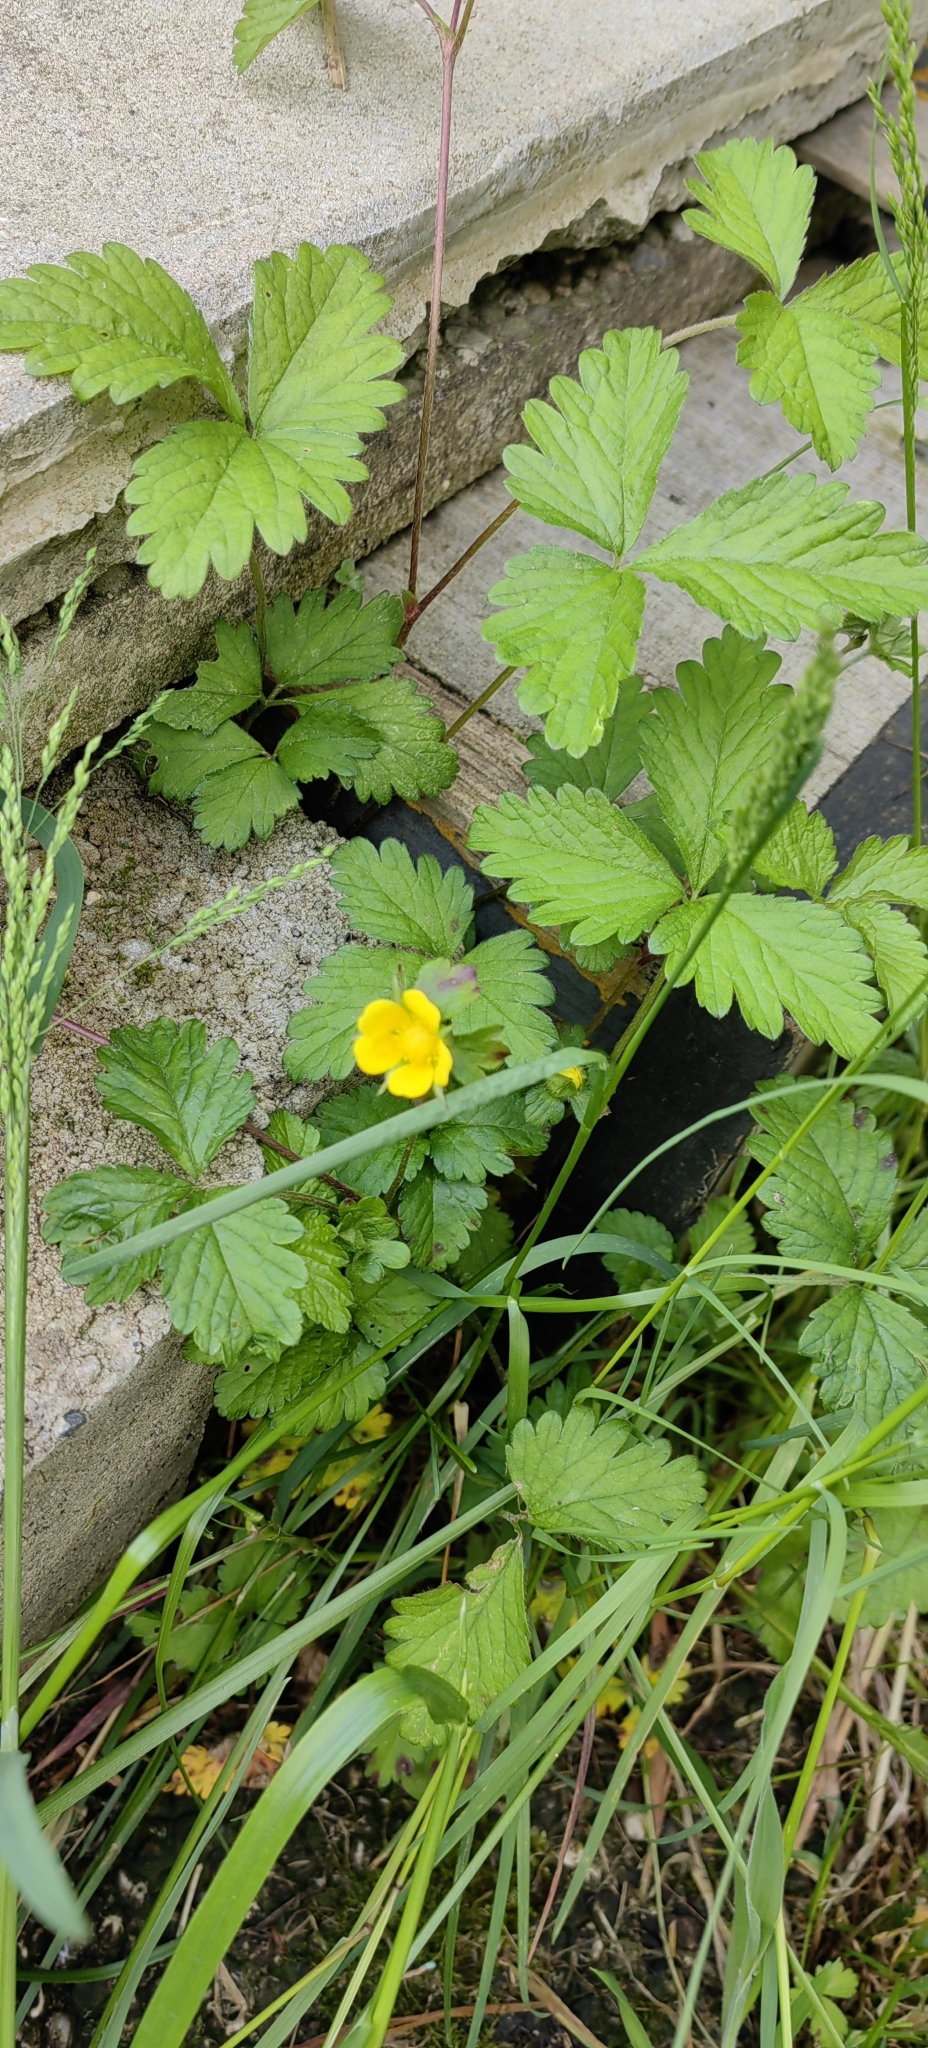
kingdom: Plantae
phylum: Tracheophyta
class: Magnoliopsida
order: Rosales
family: Rosaceae
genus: Potentilla
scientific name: Potentilla indica
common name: Yellow-flowered strawberry
